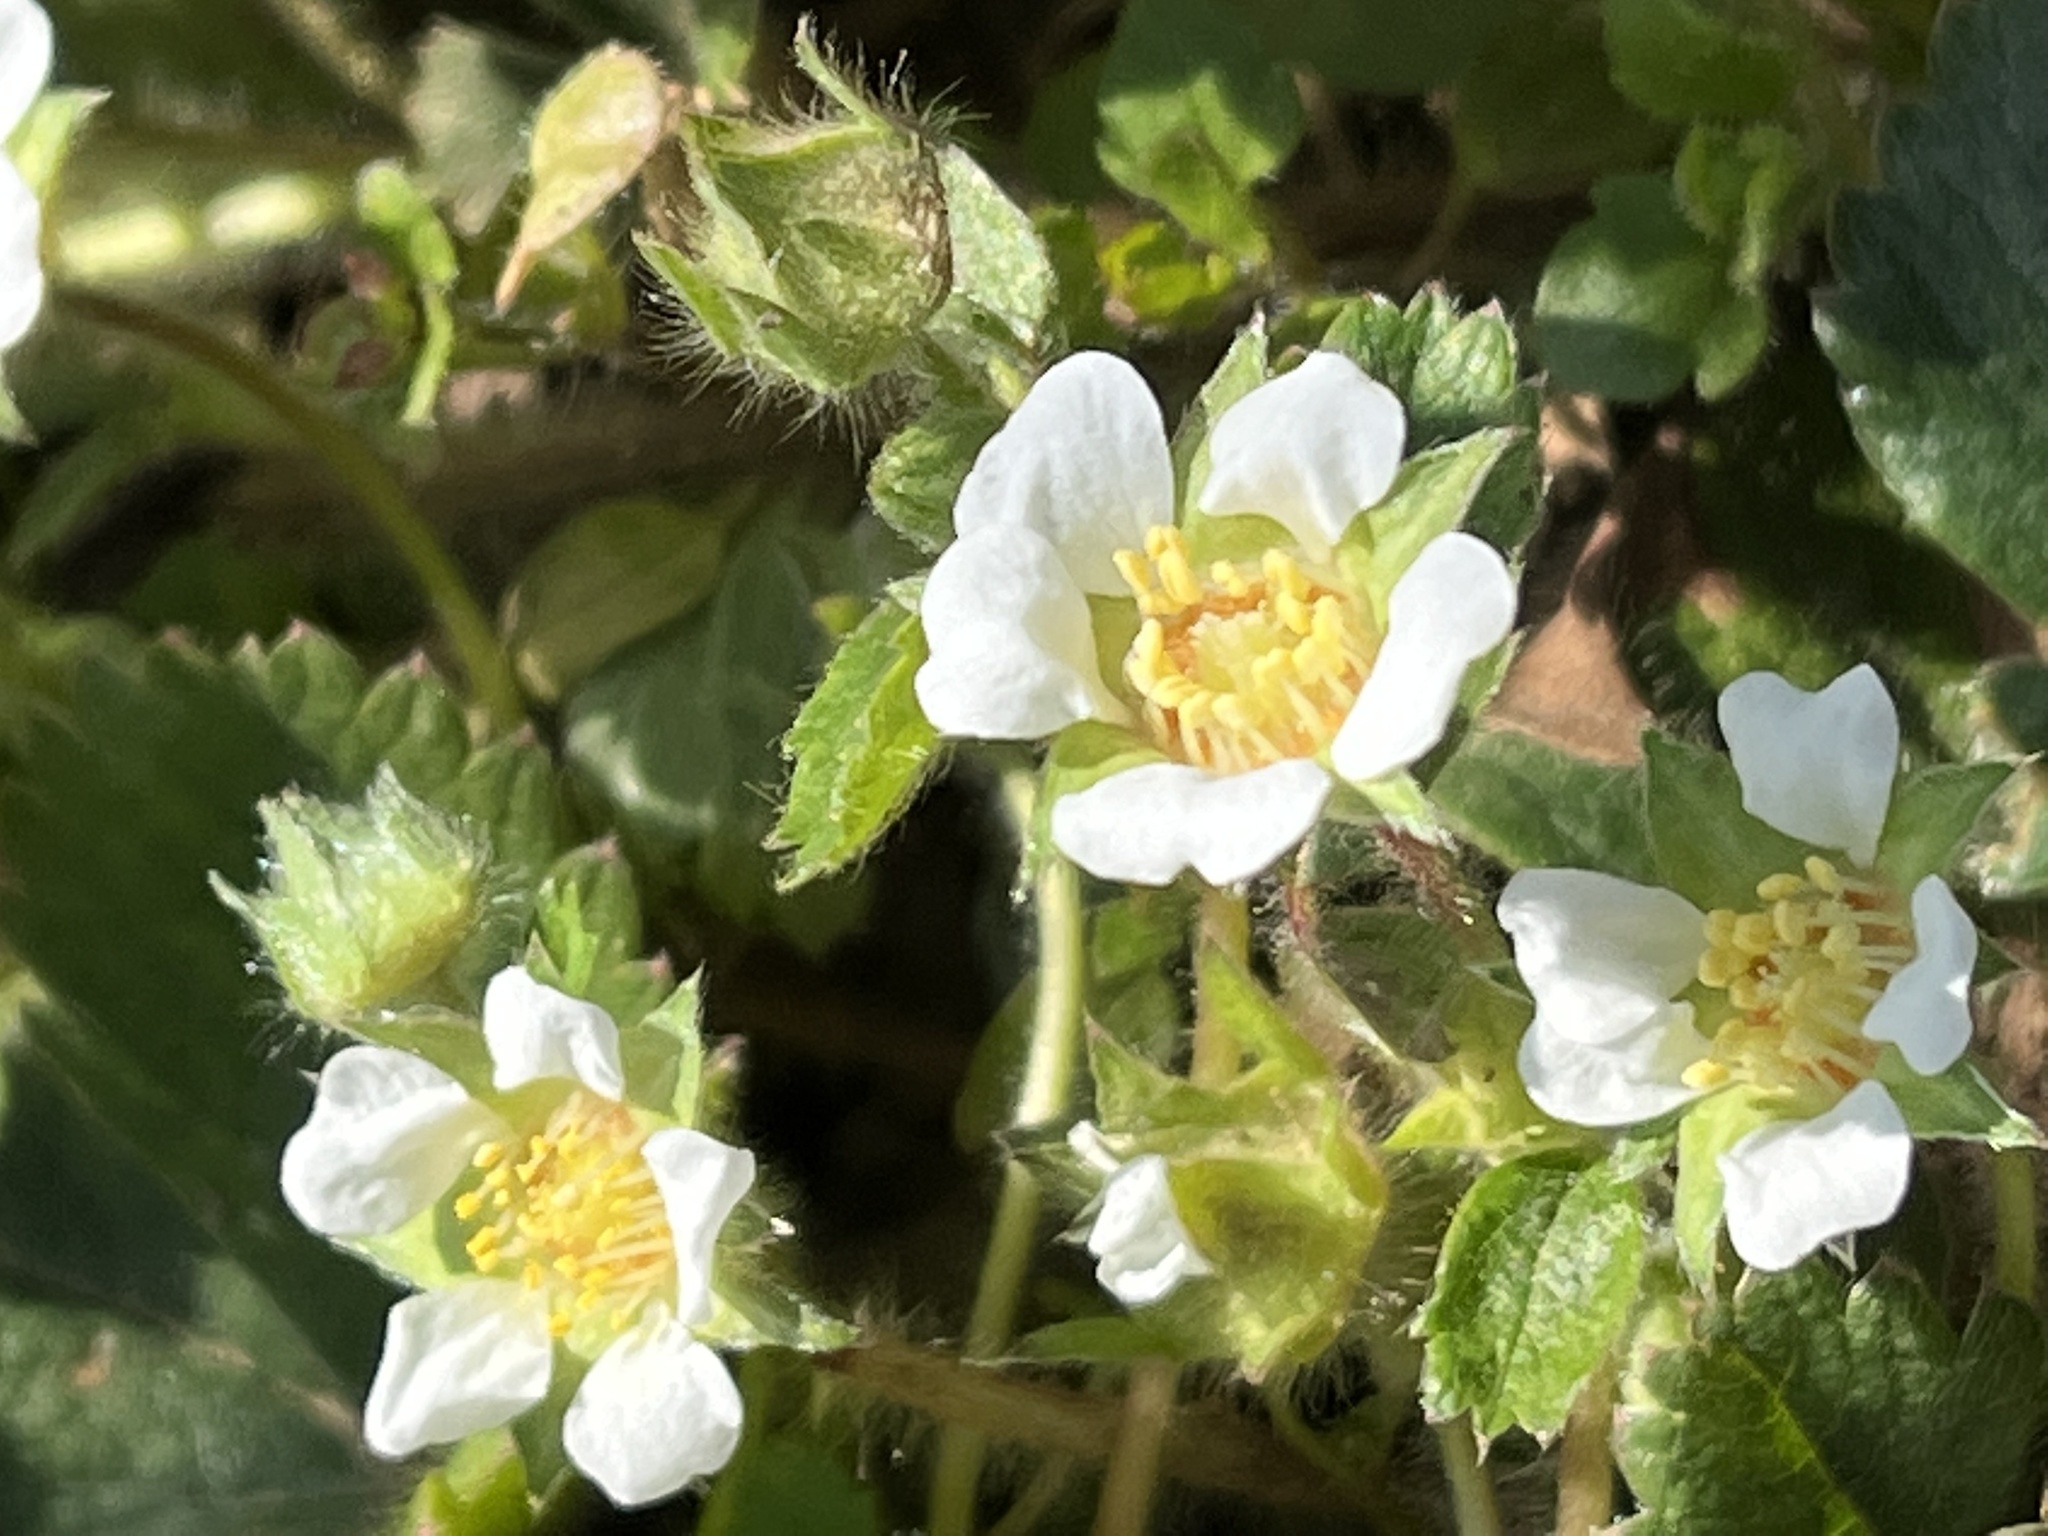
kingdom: Plantae
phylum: Tracheophyta
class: Magnoliopsida
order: Rosales
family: Rosaceae
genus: Potentilla
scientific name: Potentilla sterilis
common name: Barren strawberry
